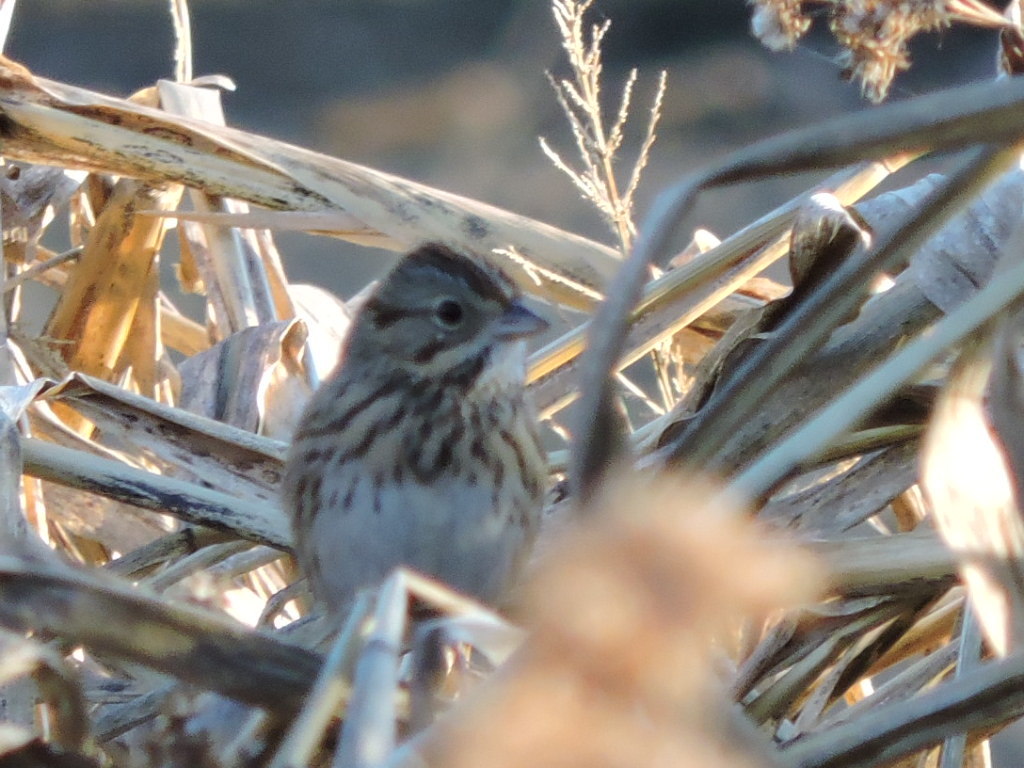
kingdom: Animalia
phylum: Chordata
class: Aves
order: Passeriformes
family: Passerellidae
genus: Melospiza
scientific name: Melospiza lincolnii
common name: Lincoln's sparrow
